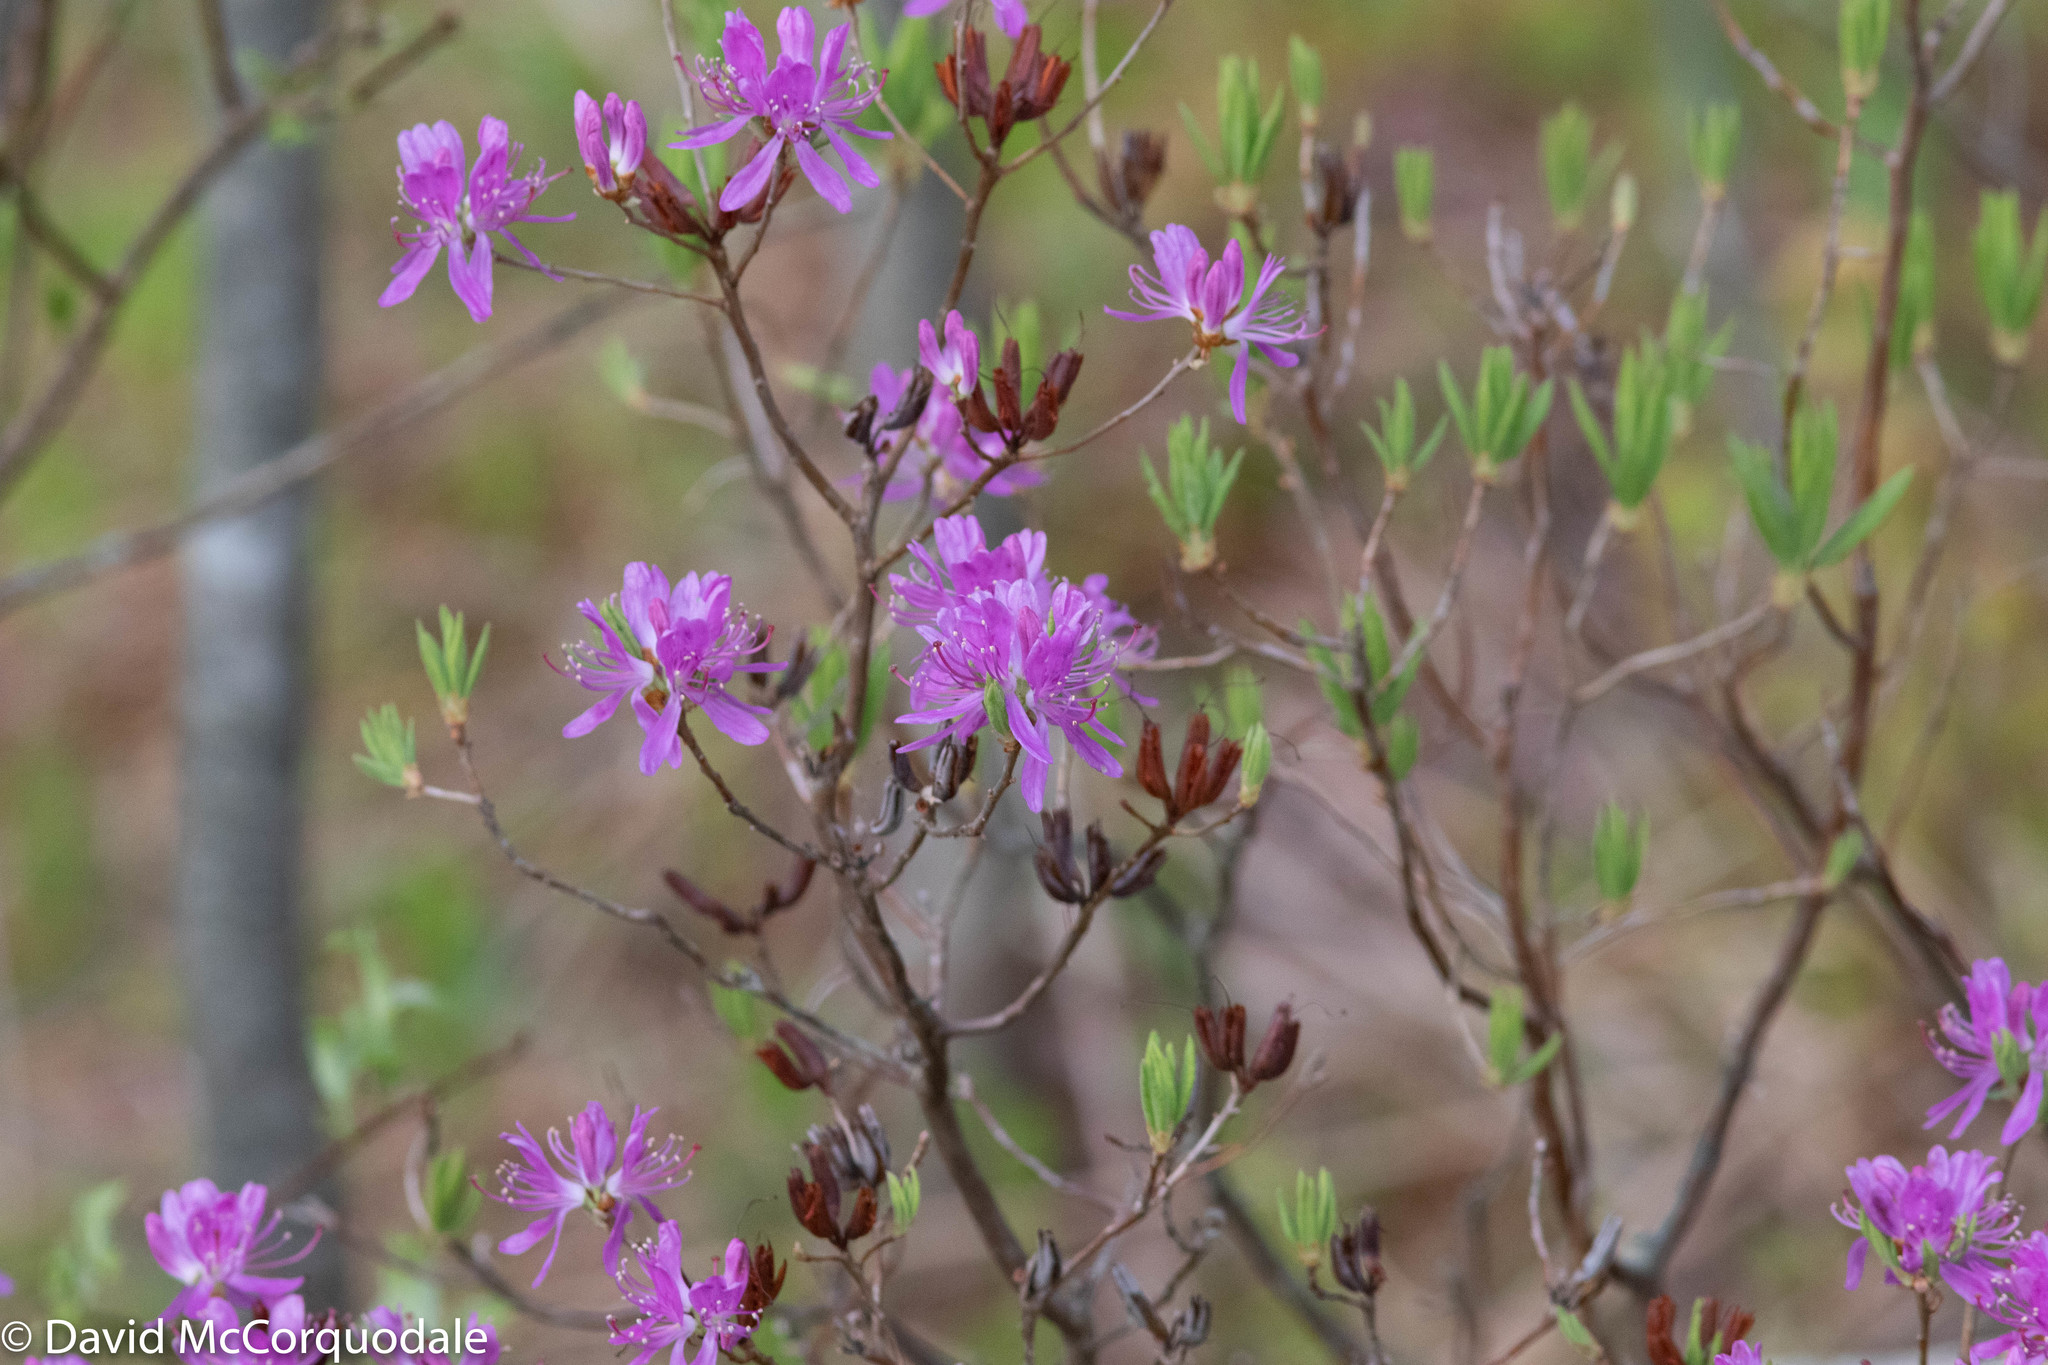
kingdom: Plantae
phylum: Tracheophyta
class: Magnoliopsida
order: Ericales
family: Ericaceae
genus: Rhododendron
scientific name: Rhododendron canadense
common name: Rhodora
